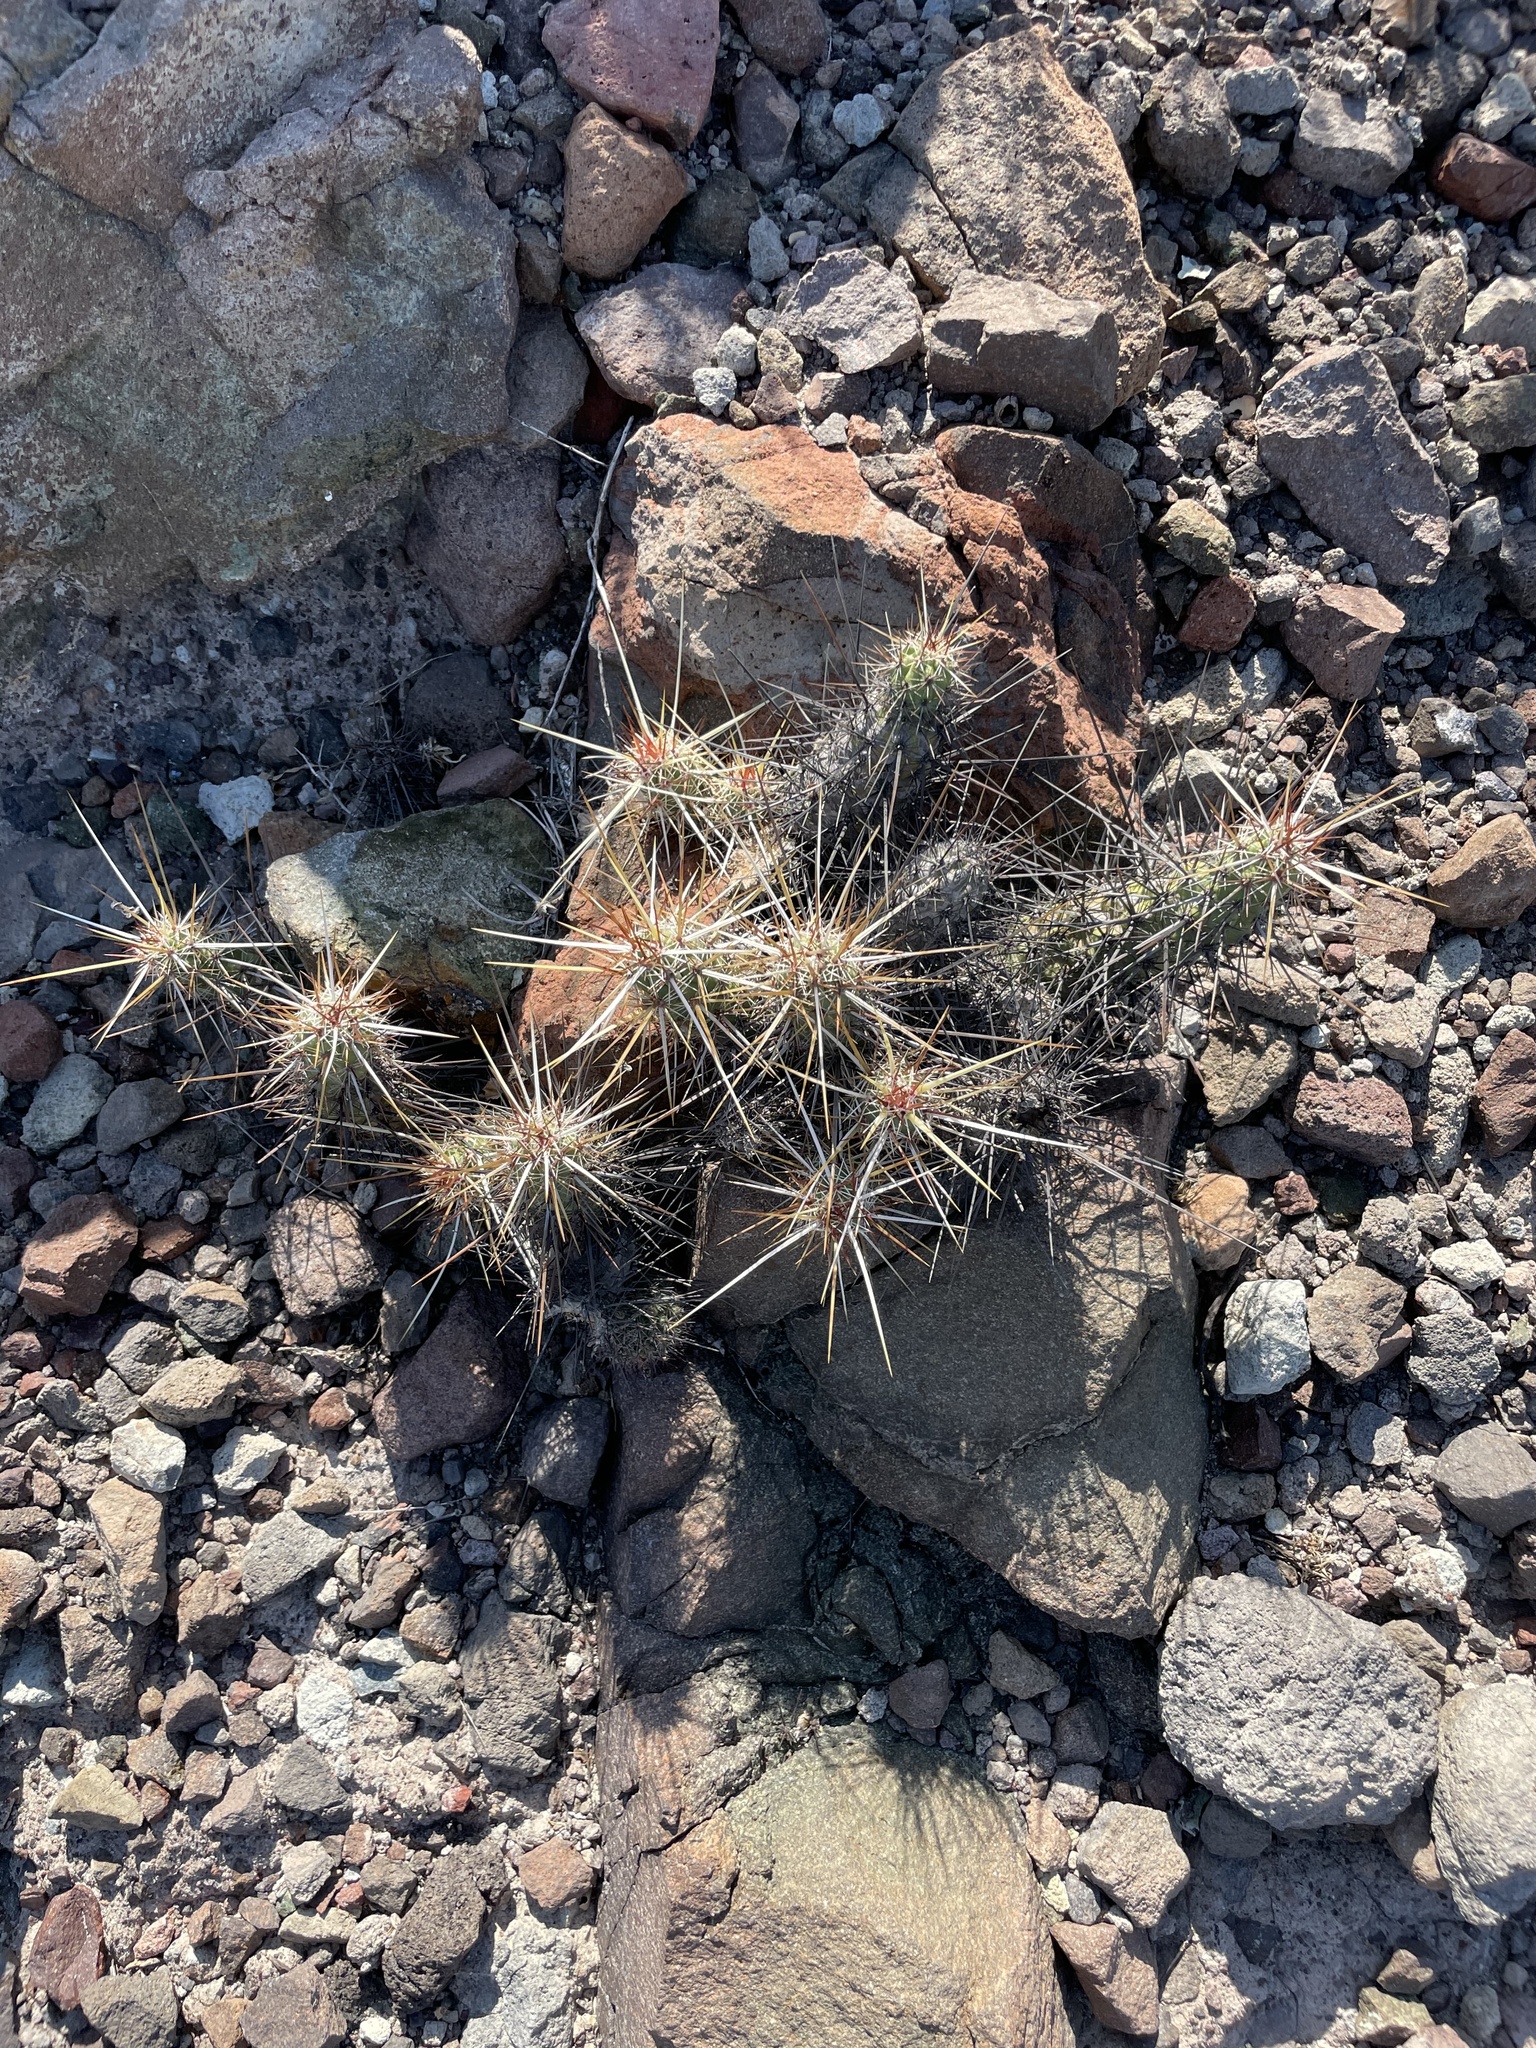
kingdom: Plantae
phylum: Tracheophyta
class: Magnoliopsida
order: Caryophyllales
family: Cactaceae
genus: Echinocereus
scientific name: Echinocereus brandegeei
